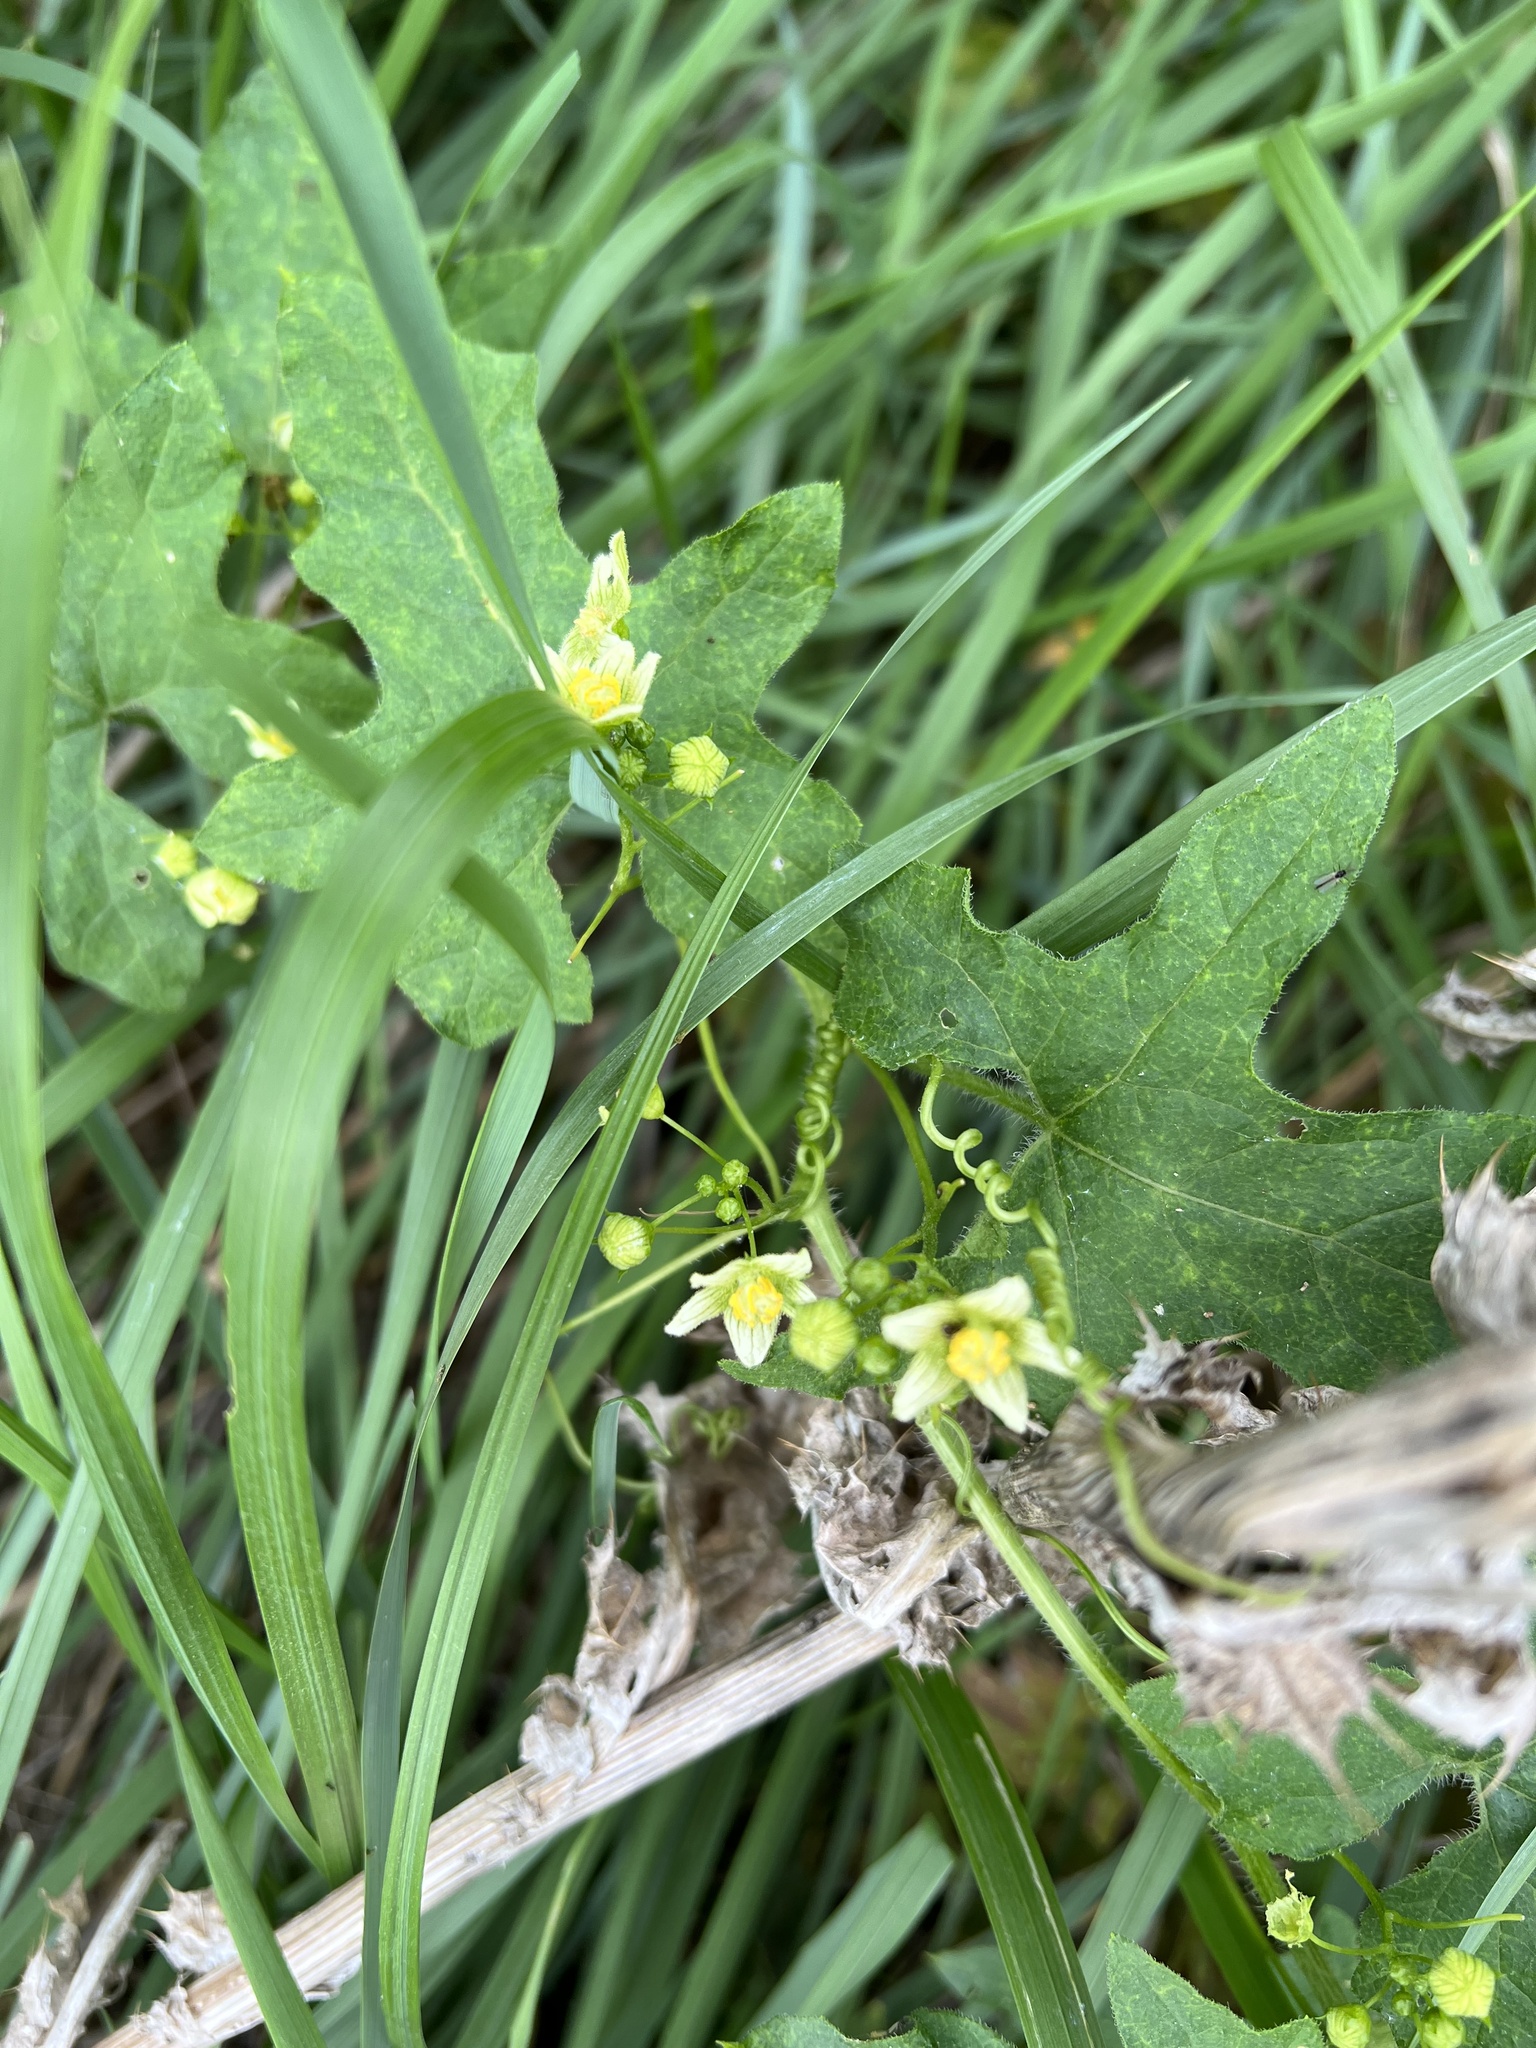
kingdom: Plantae
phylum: Tracheophyta
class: Magnoliopsida
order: Cucurbitales
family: Cucurbitaceae
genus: Bryonia
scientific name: Bryonia cretica
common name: Cretan bryony
